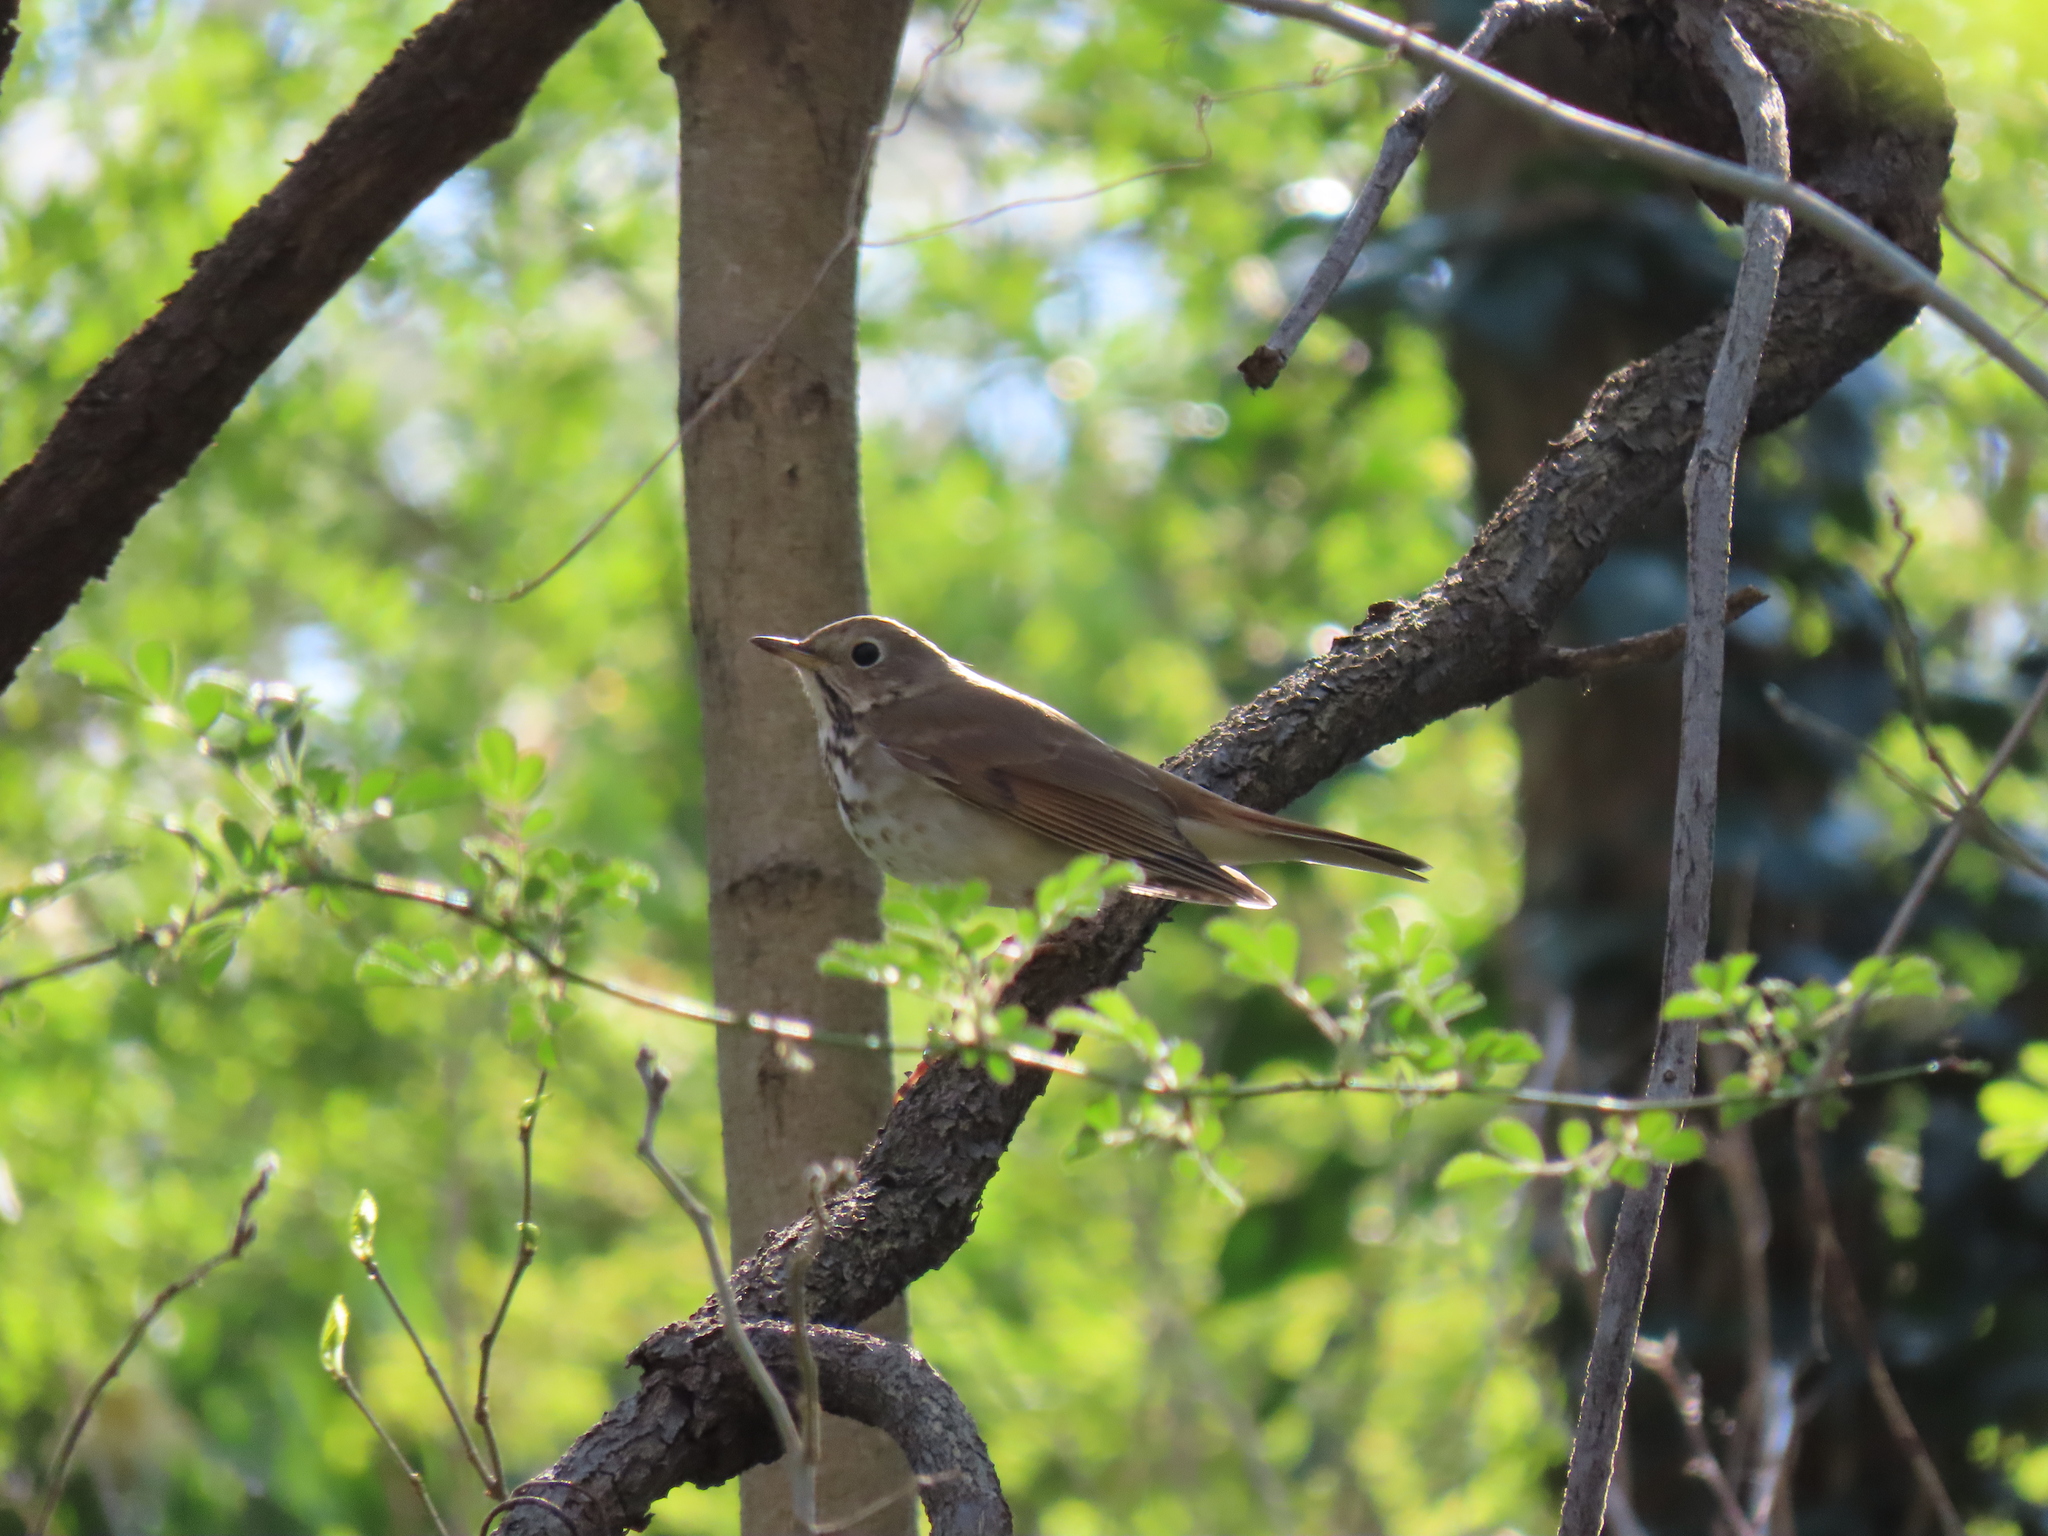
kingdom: Animalia
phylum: Chordata
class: Aves
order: Passeriformes
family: Turdidae
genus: Catharus
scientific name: Catharus guttatus
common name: Hermit thrush
